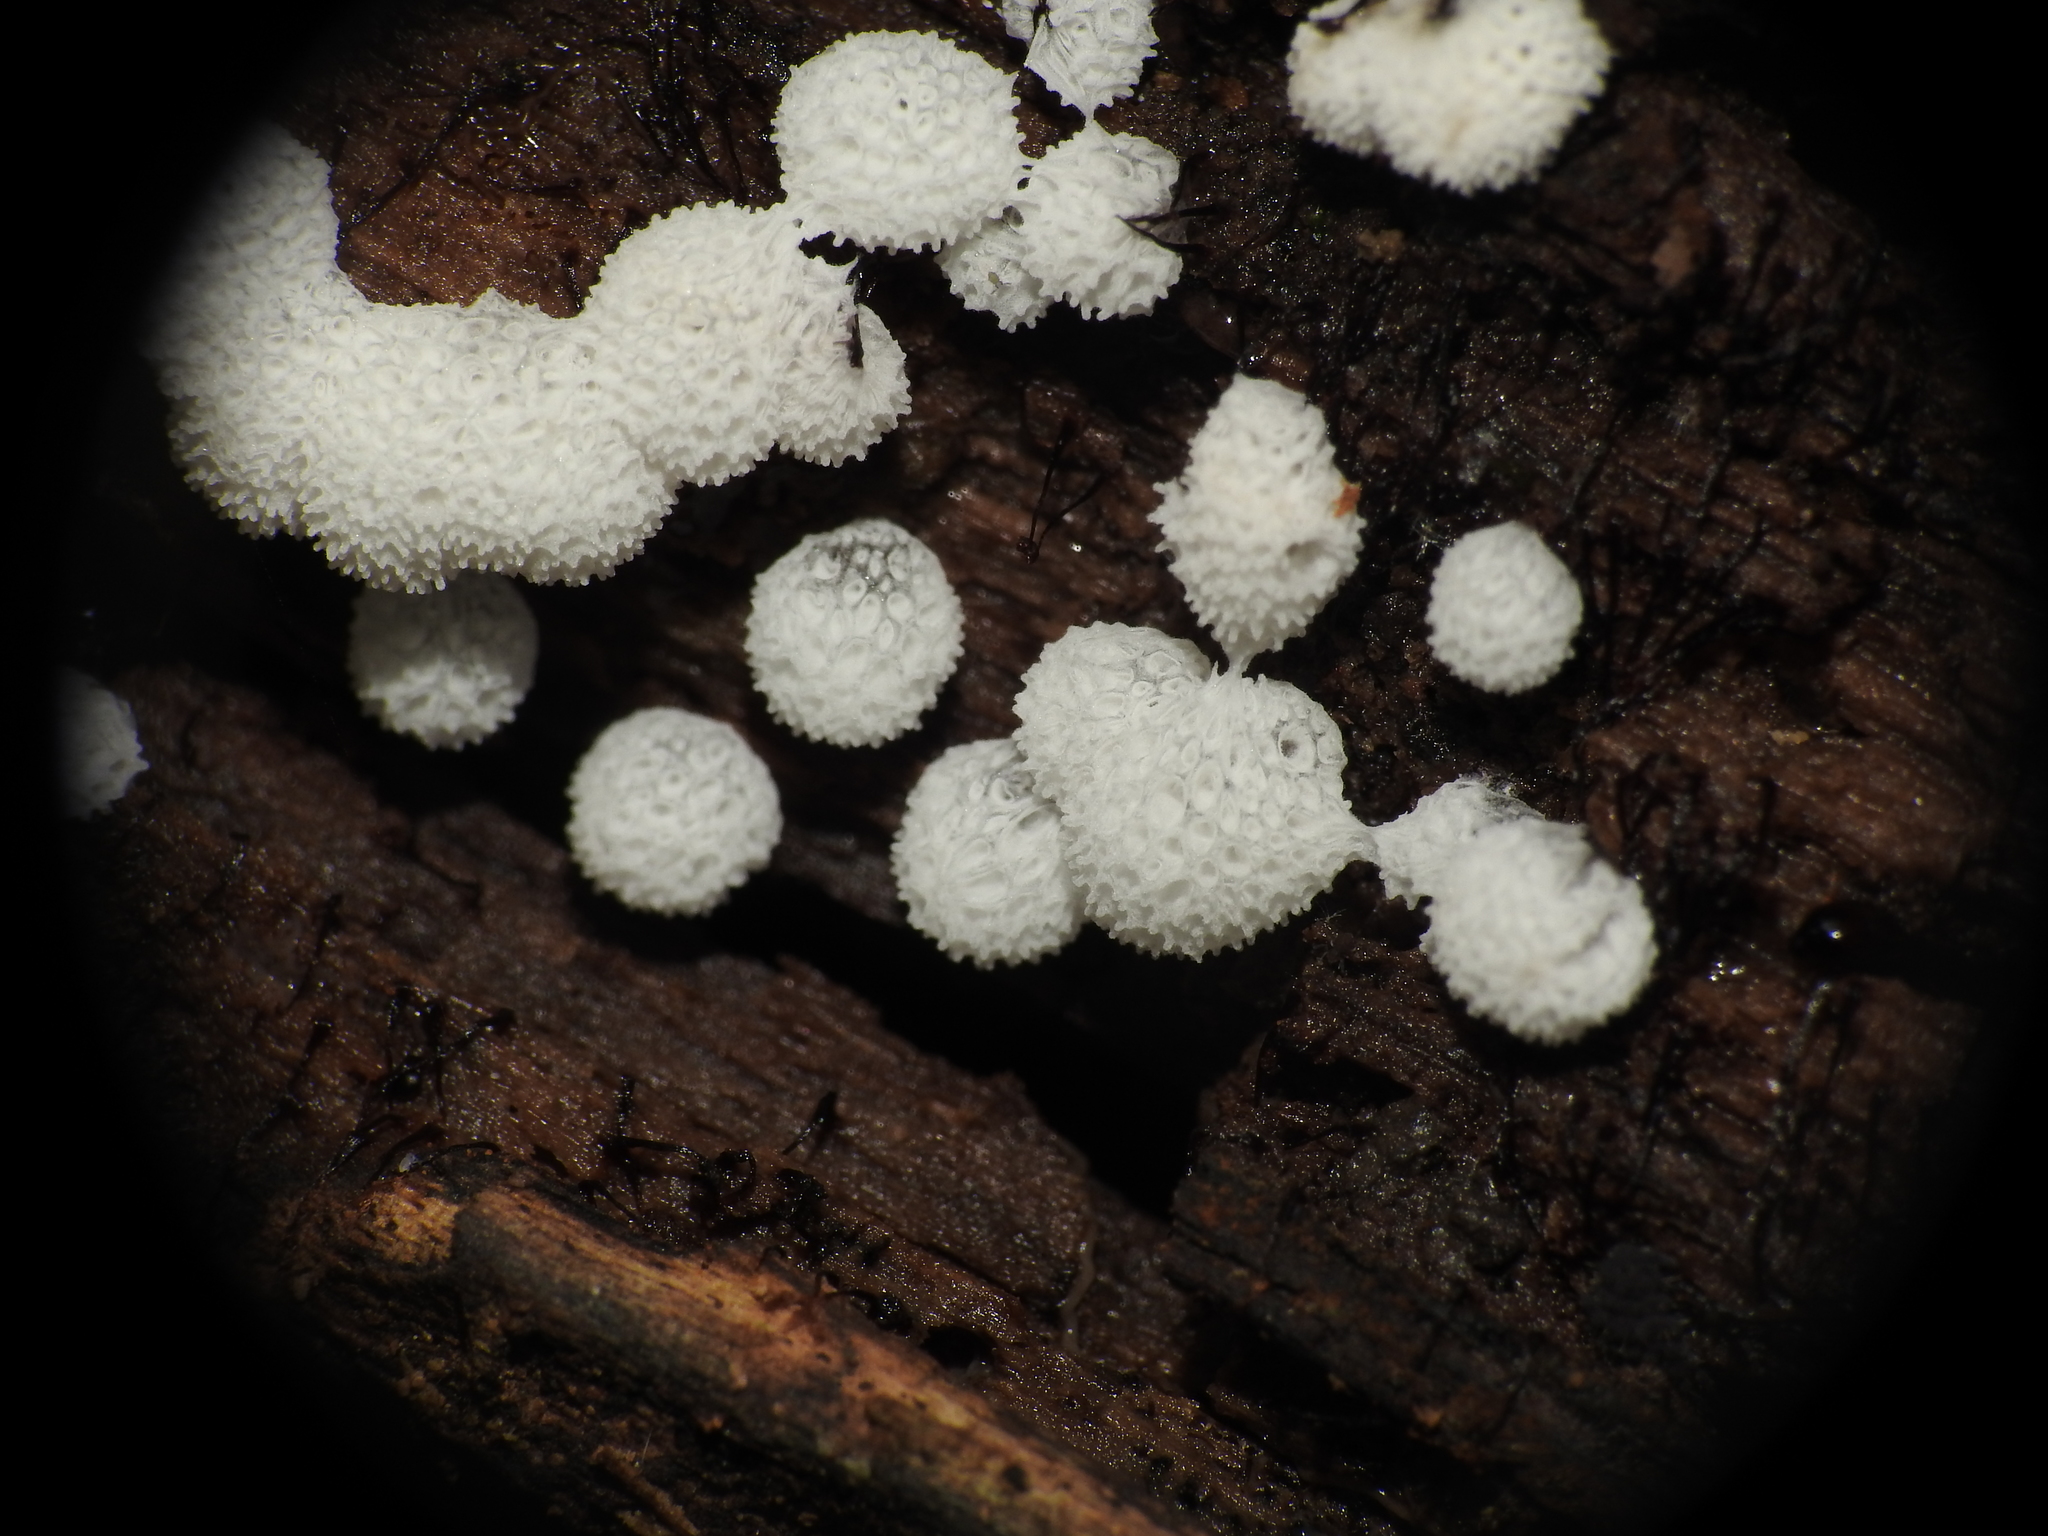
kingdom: Protozoa
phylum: Mycetozoa
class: Protosteliomycetes
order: Ceratiomyxales
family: Ceratiomyxaceae
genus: Ceratiomyxa
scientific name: Ceratiomyxa fruticulosa
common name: Honeycomb coral slime mold
